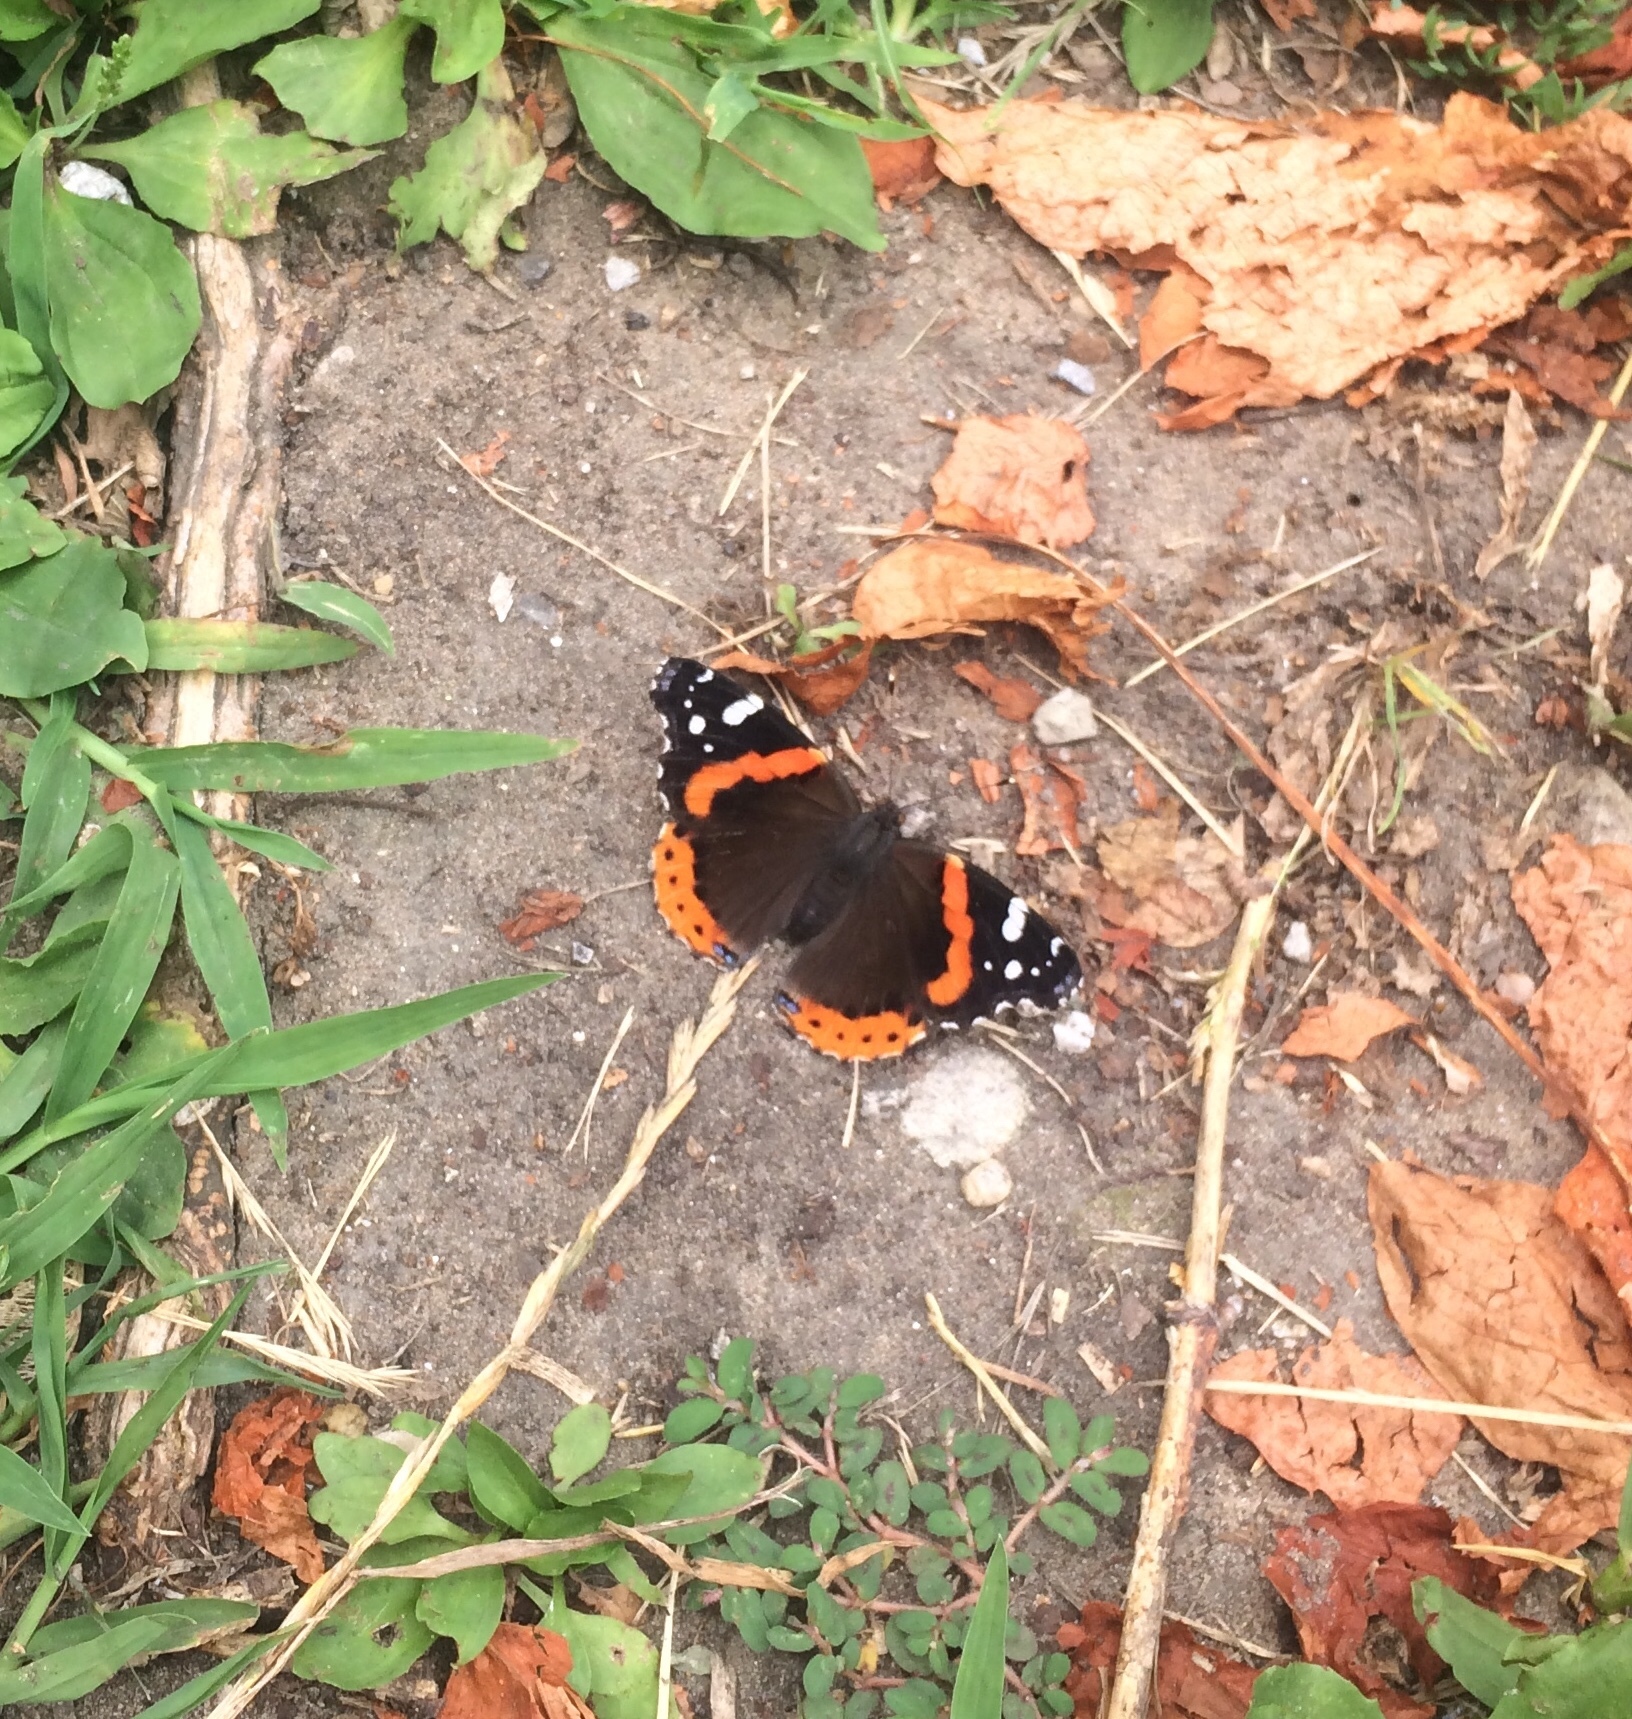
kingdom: Animalia
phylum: Arthropoda
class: Insecta
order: Lepidoptera
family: Nymphalidae
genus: Vanessa
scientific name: Vanessa atalanta
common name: Red admiral
